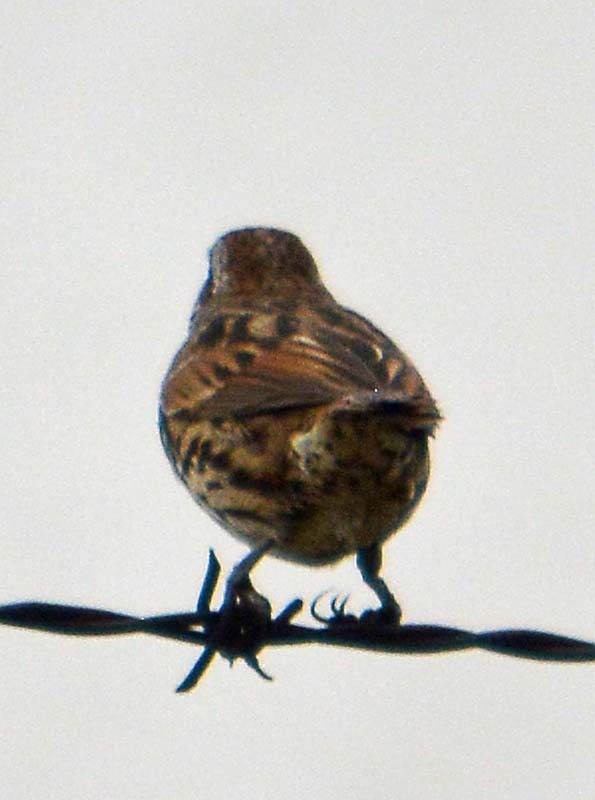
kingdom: Animalia
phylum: Chordata
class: Aves
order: Passeriformes
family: Passerellidae
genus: Melospiza
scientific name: Melospiza melodia
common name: Song sparrow
